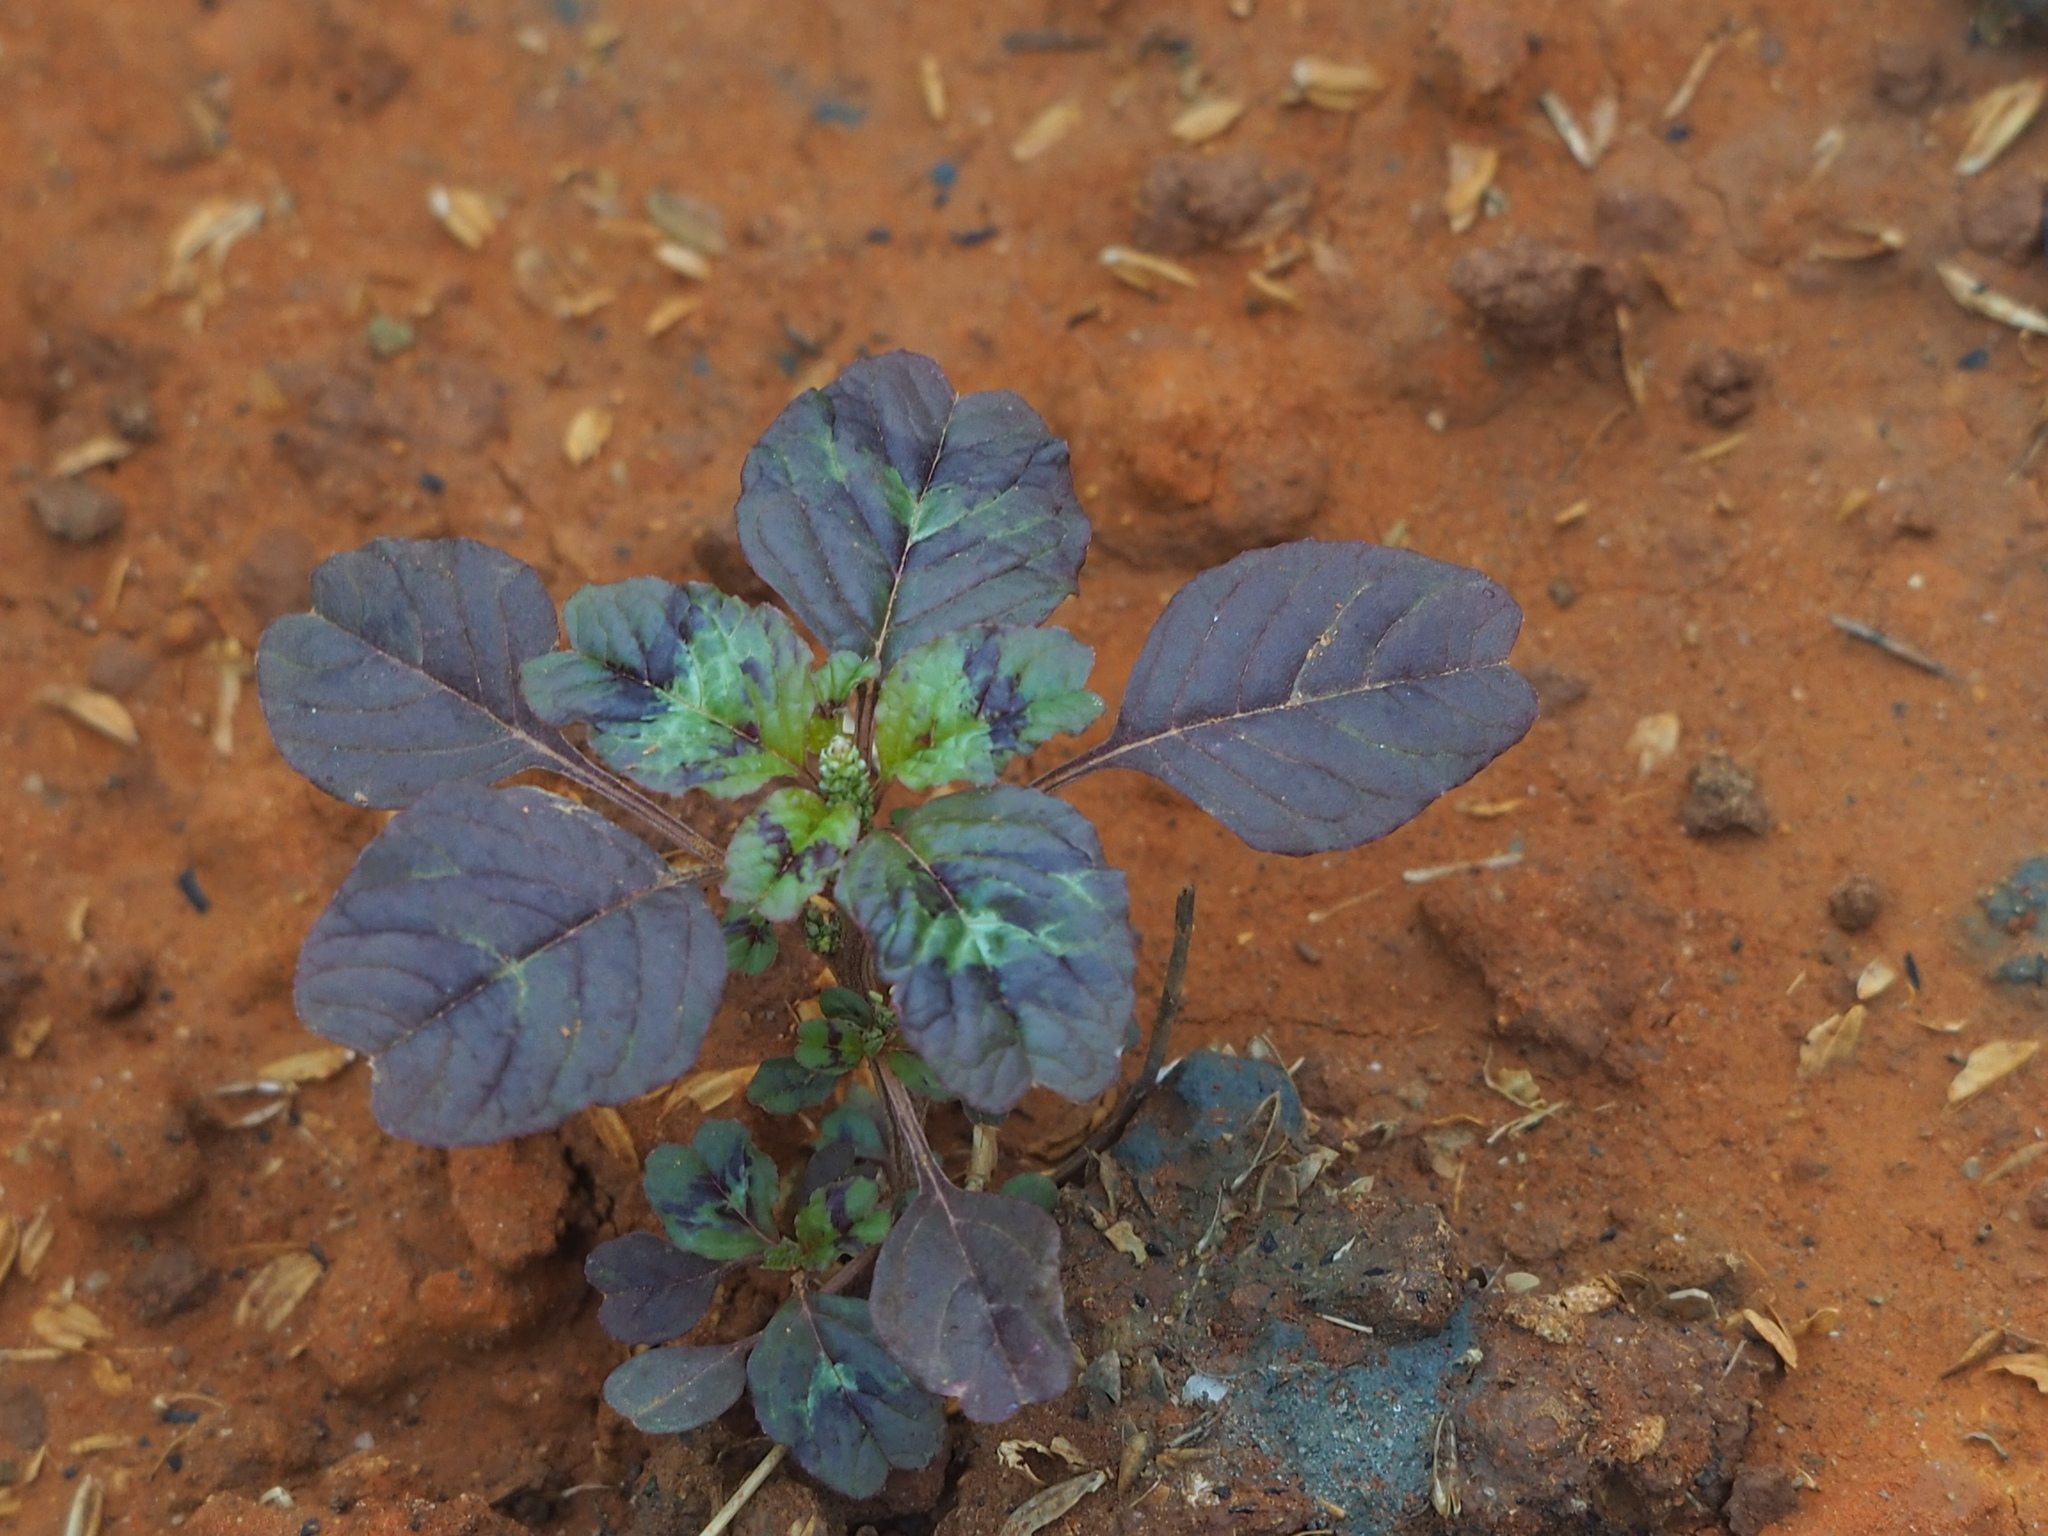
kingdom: Plantae
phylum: Tracheophyta
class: Magnoliopsida
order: Caryophyllales
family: Amaranthaceae
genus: Amaranthus
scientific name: Amaranthus blitum
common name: Purple amaranth
